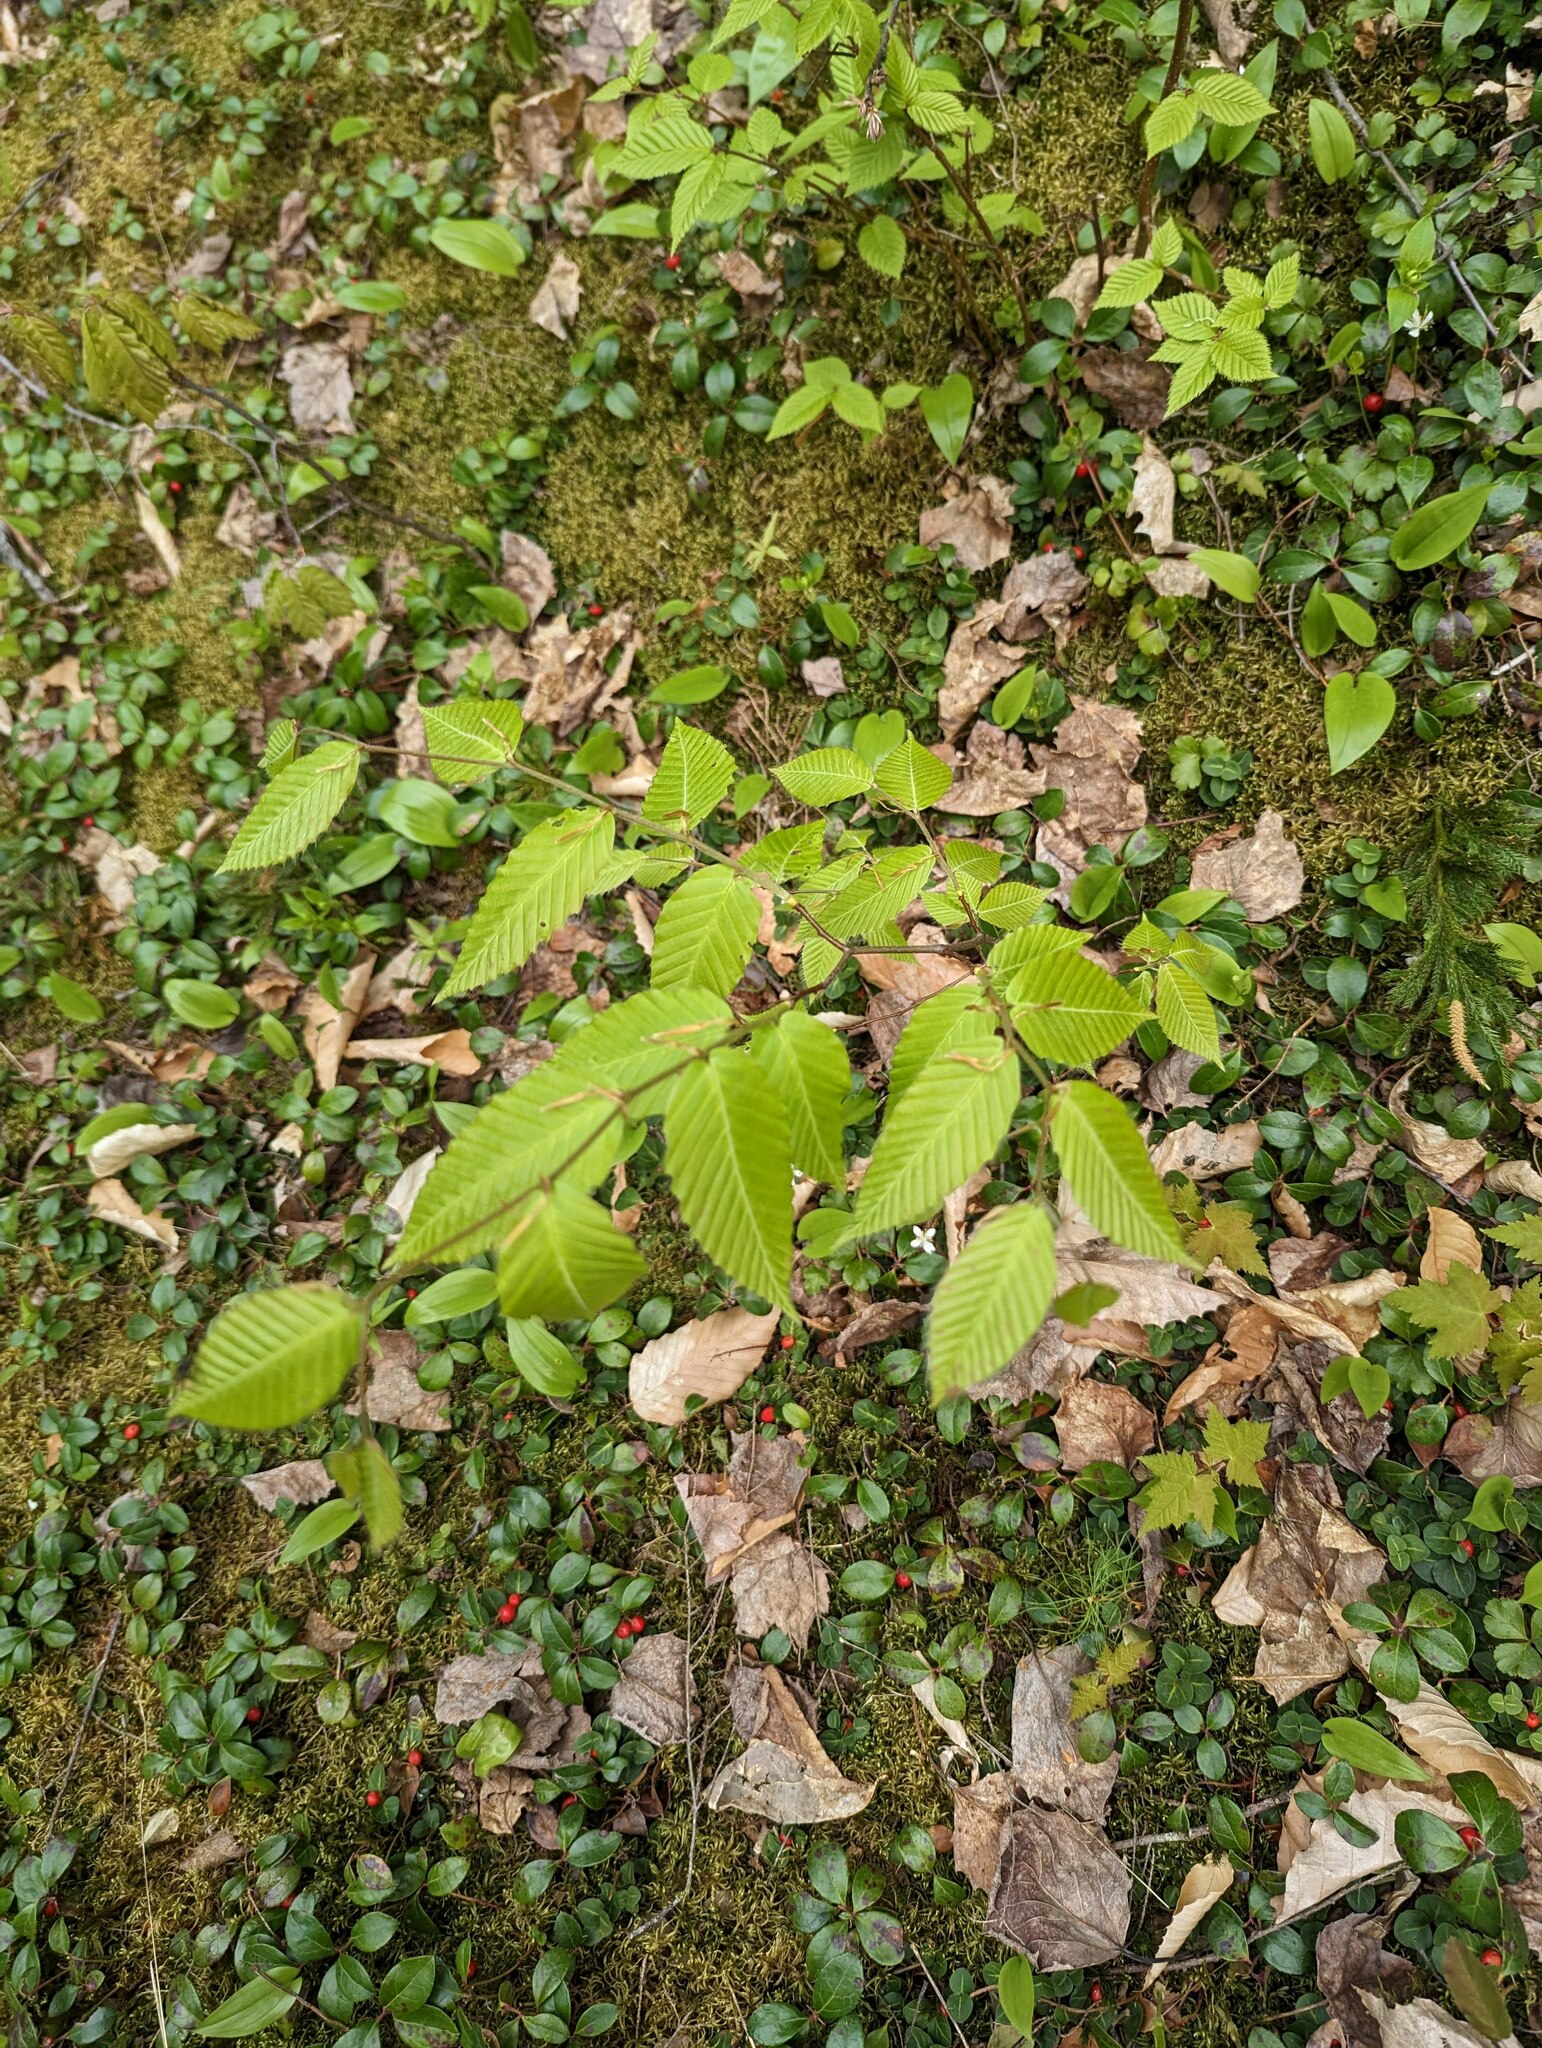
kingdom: Plantae
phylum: Tracheophyta
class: Magnoliopsida
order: Fagales
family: Fagaceae
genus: Fagus
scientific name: Fagus grandifolia
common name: American beech
